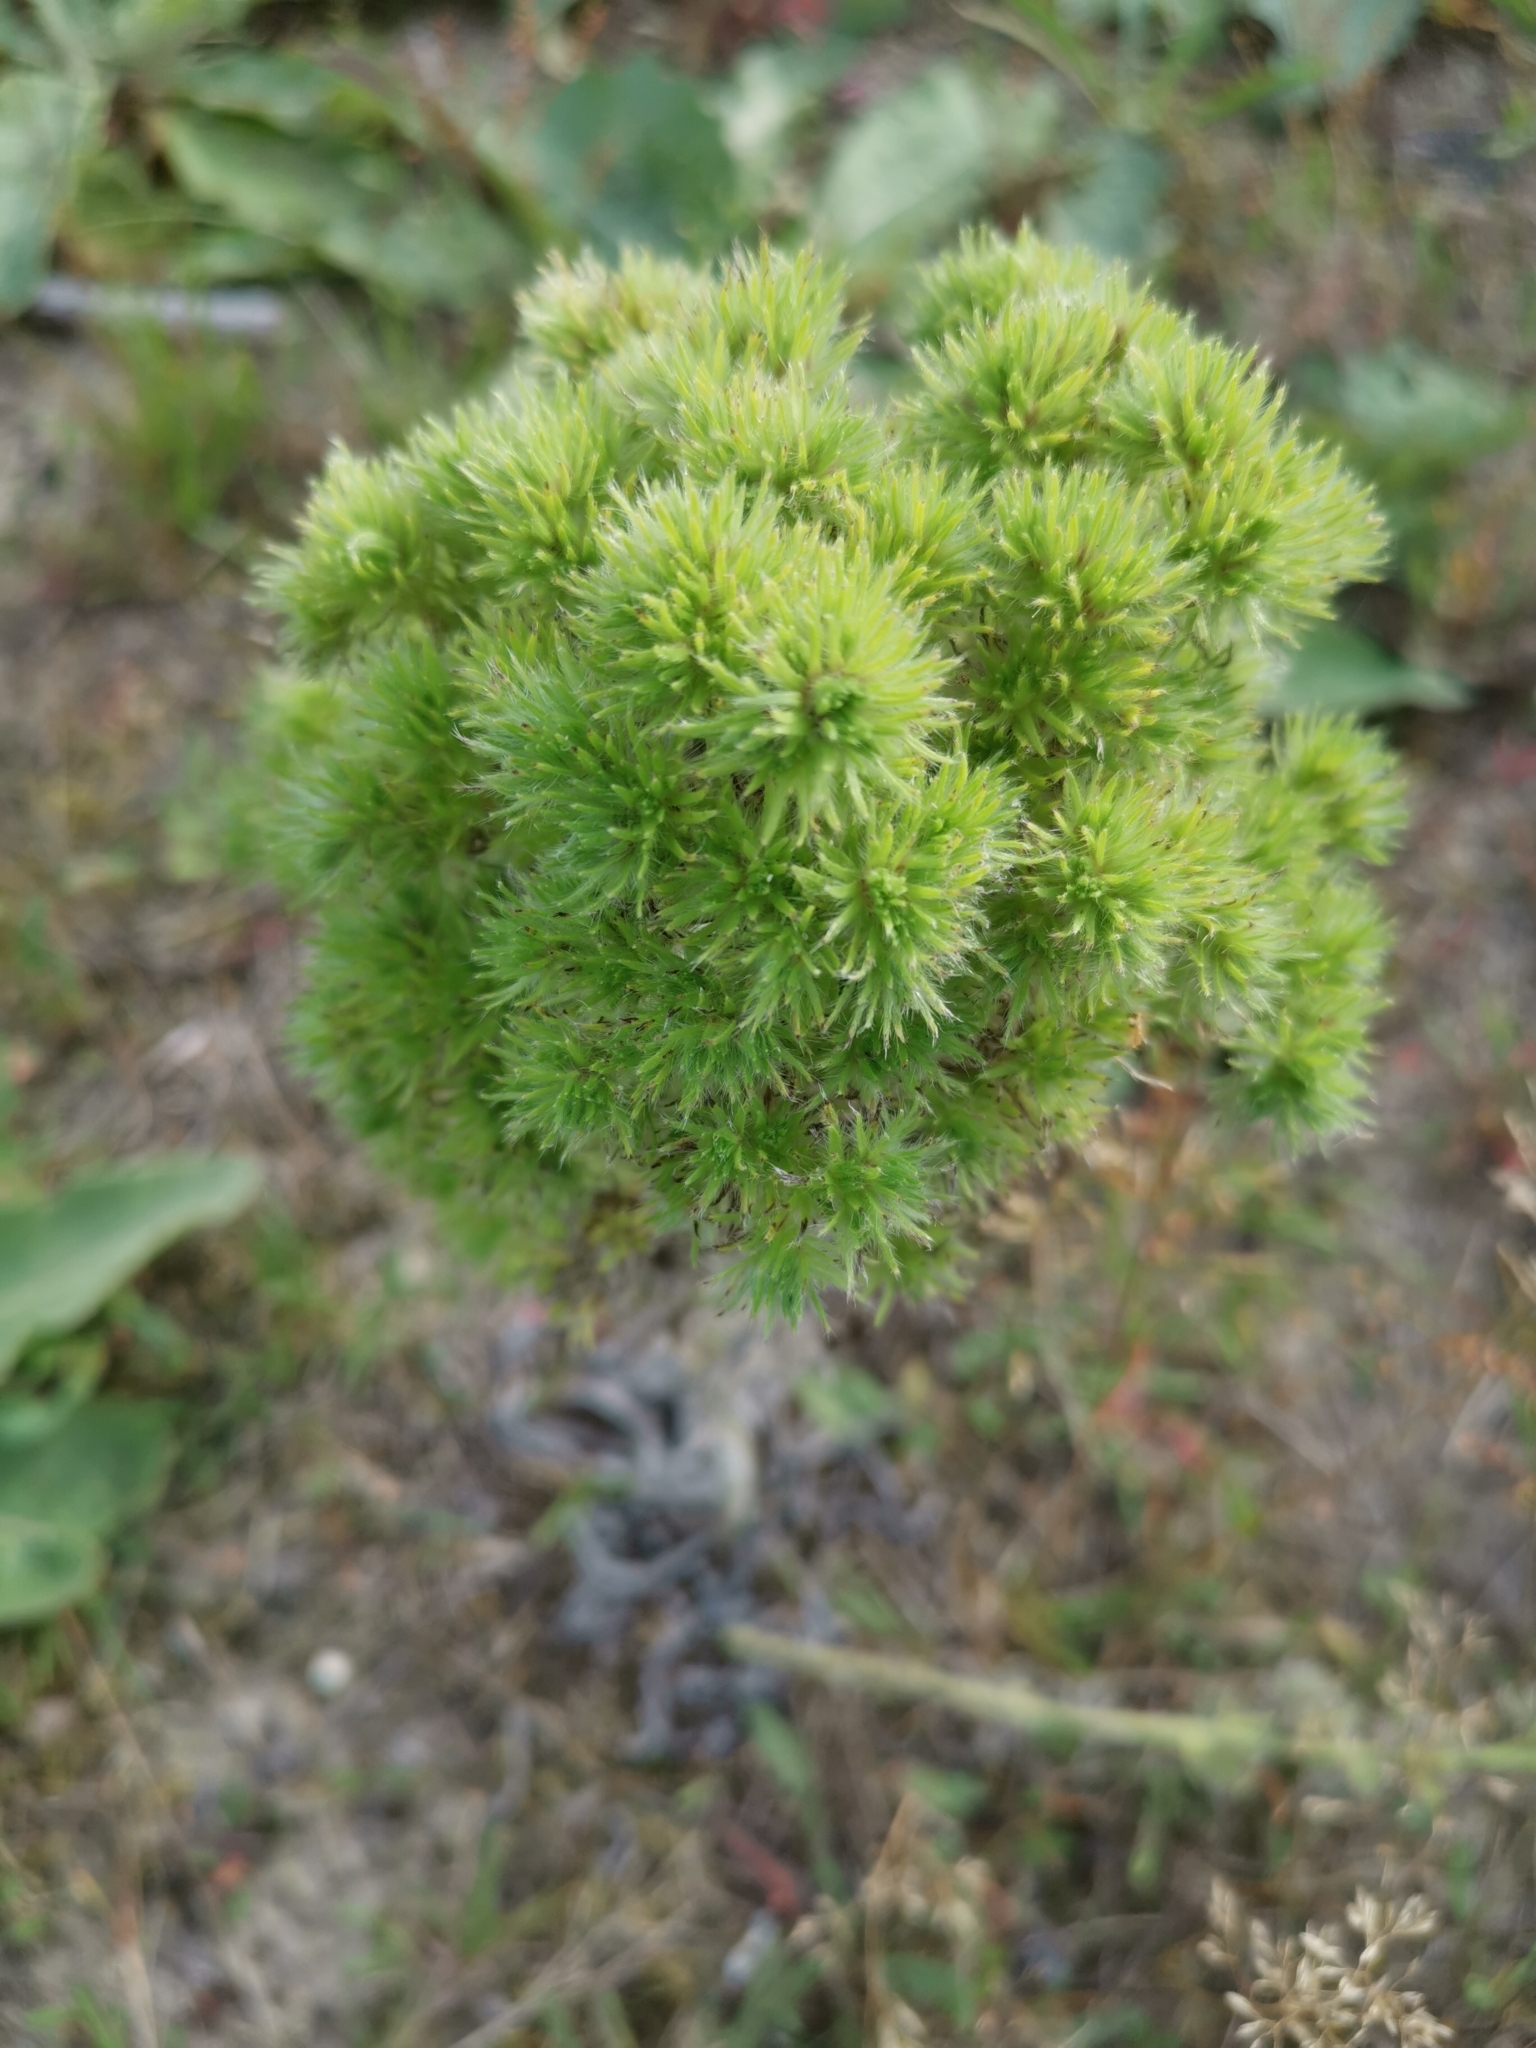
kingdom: Animalia
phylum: Arthropoda
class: Arachnida
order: Trombidiformes
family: Eriophyidae
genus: Aceria
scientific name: Aceria echii
